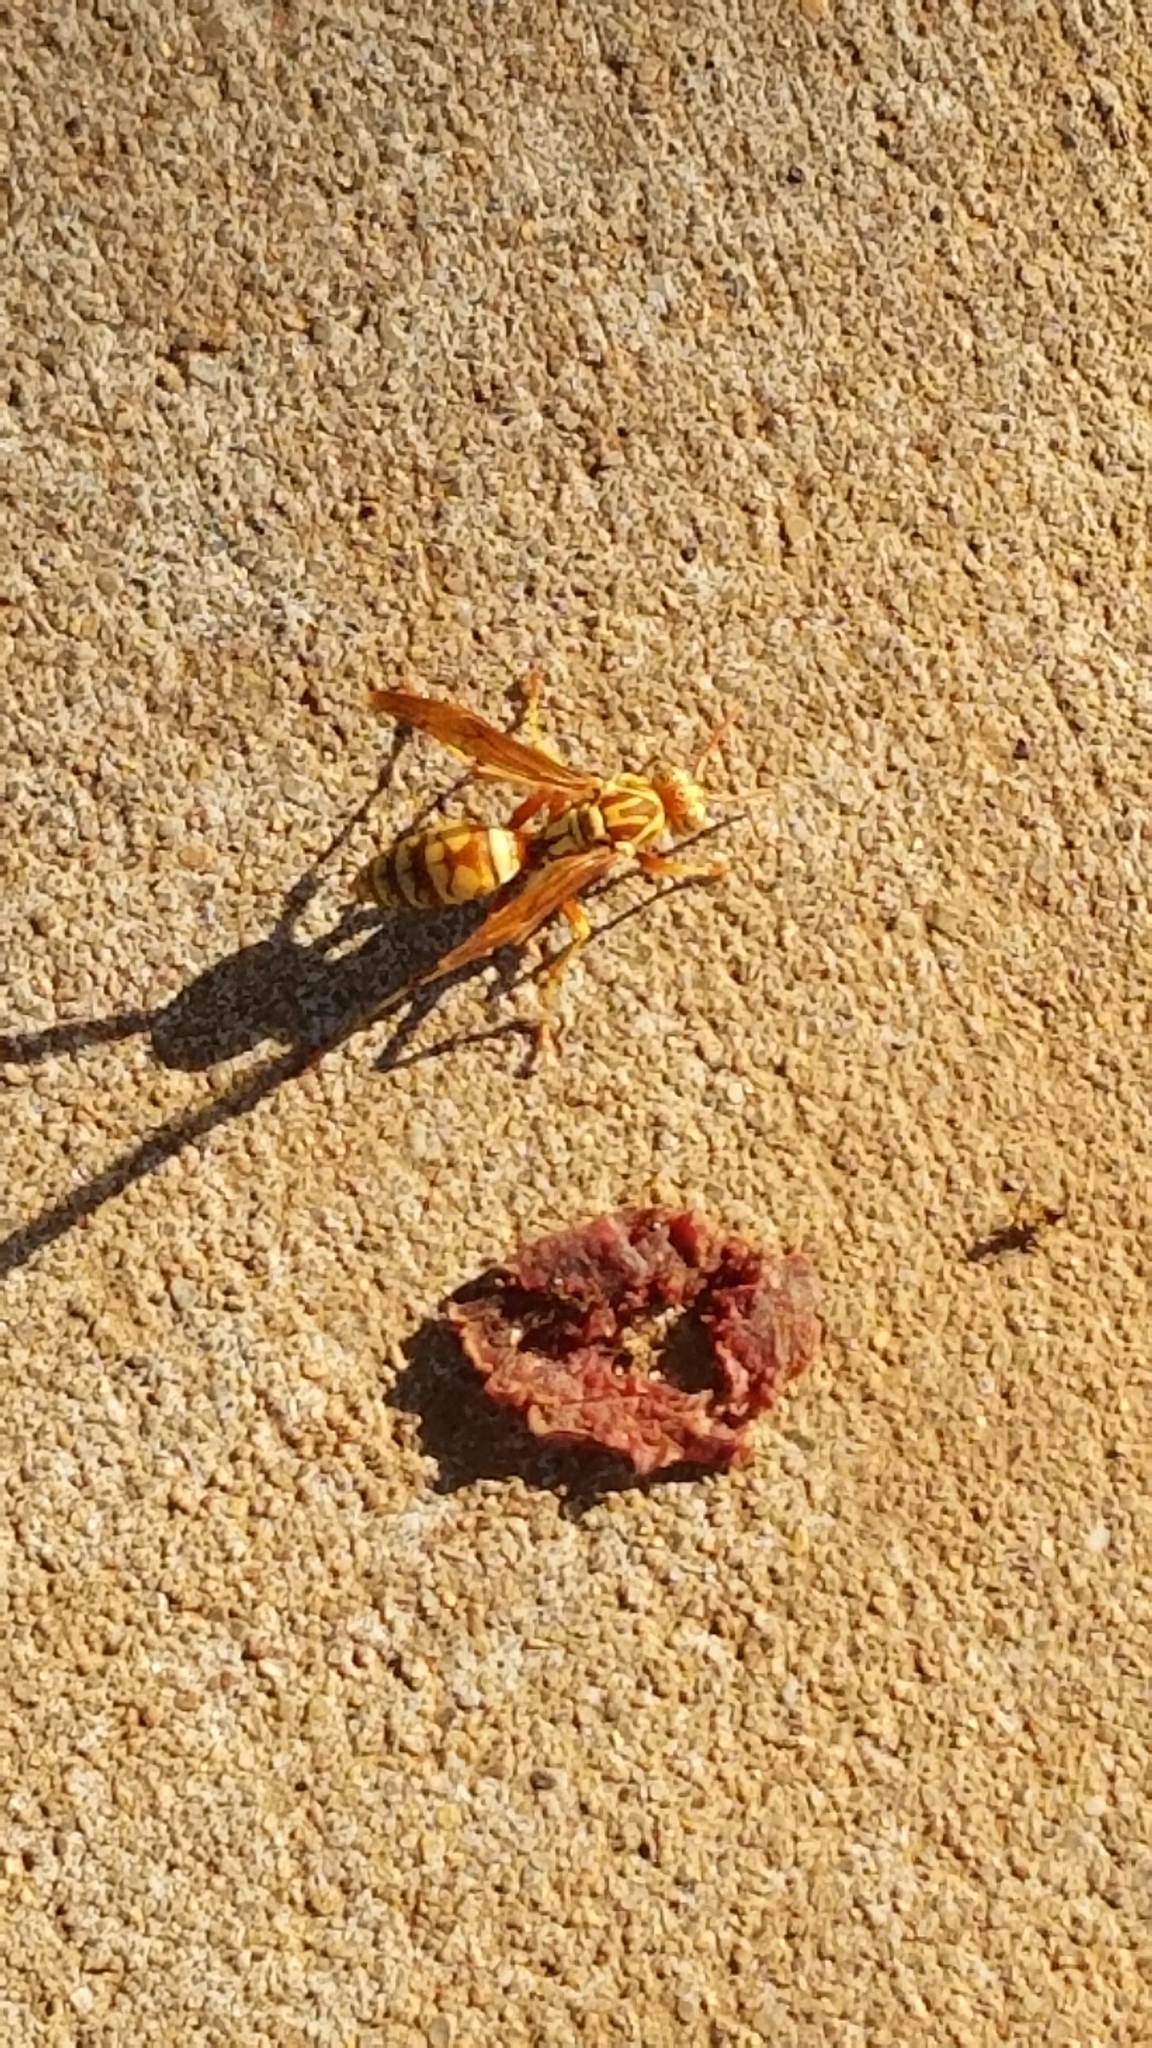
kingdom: Animalia
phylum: Arthropoda
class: Insecta
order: Hymenoptera
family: Eumenidae
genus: Polistes
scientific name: Polistes apachus
